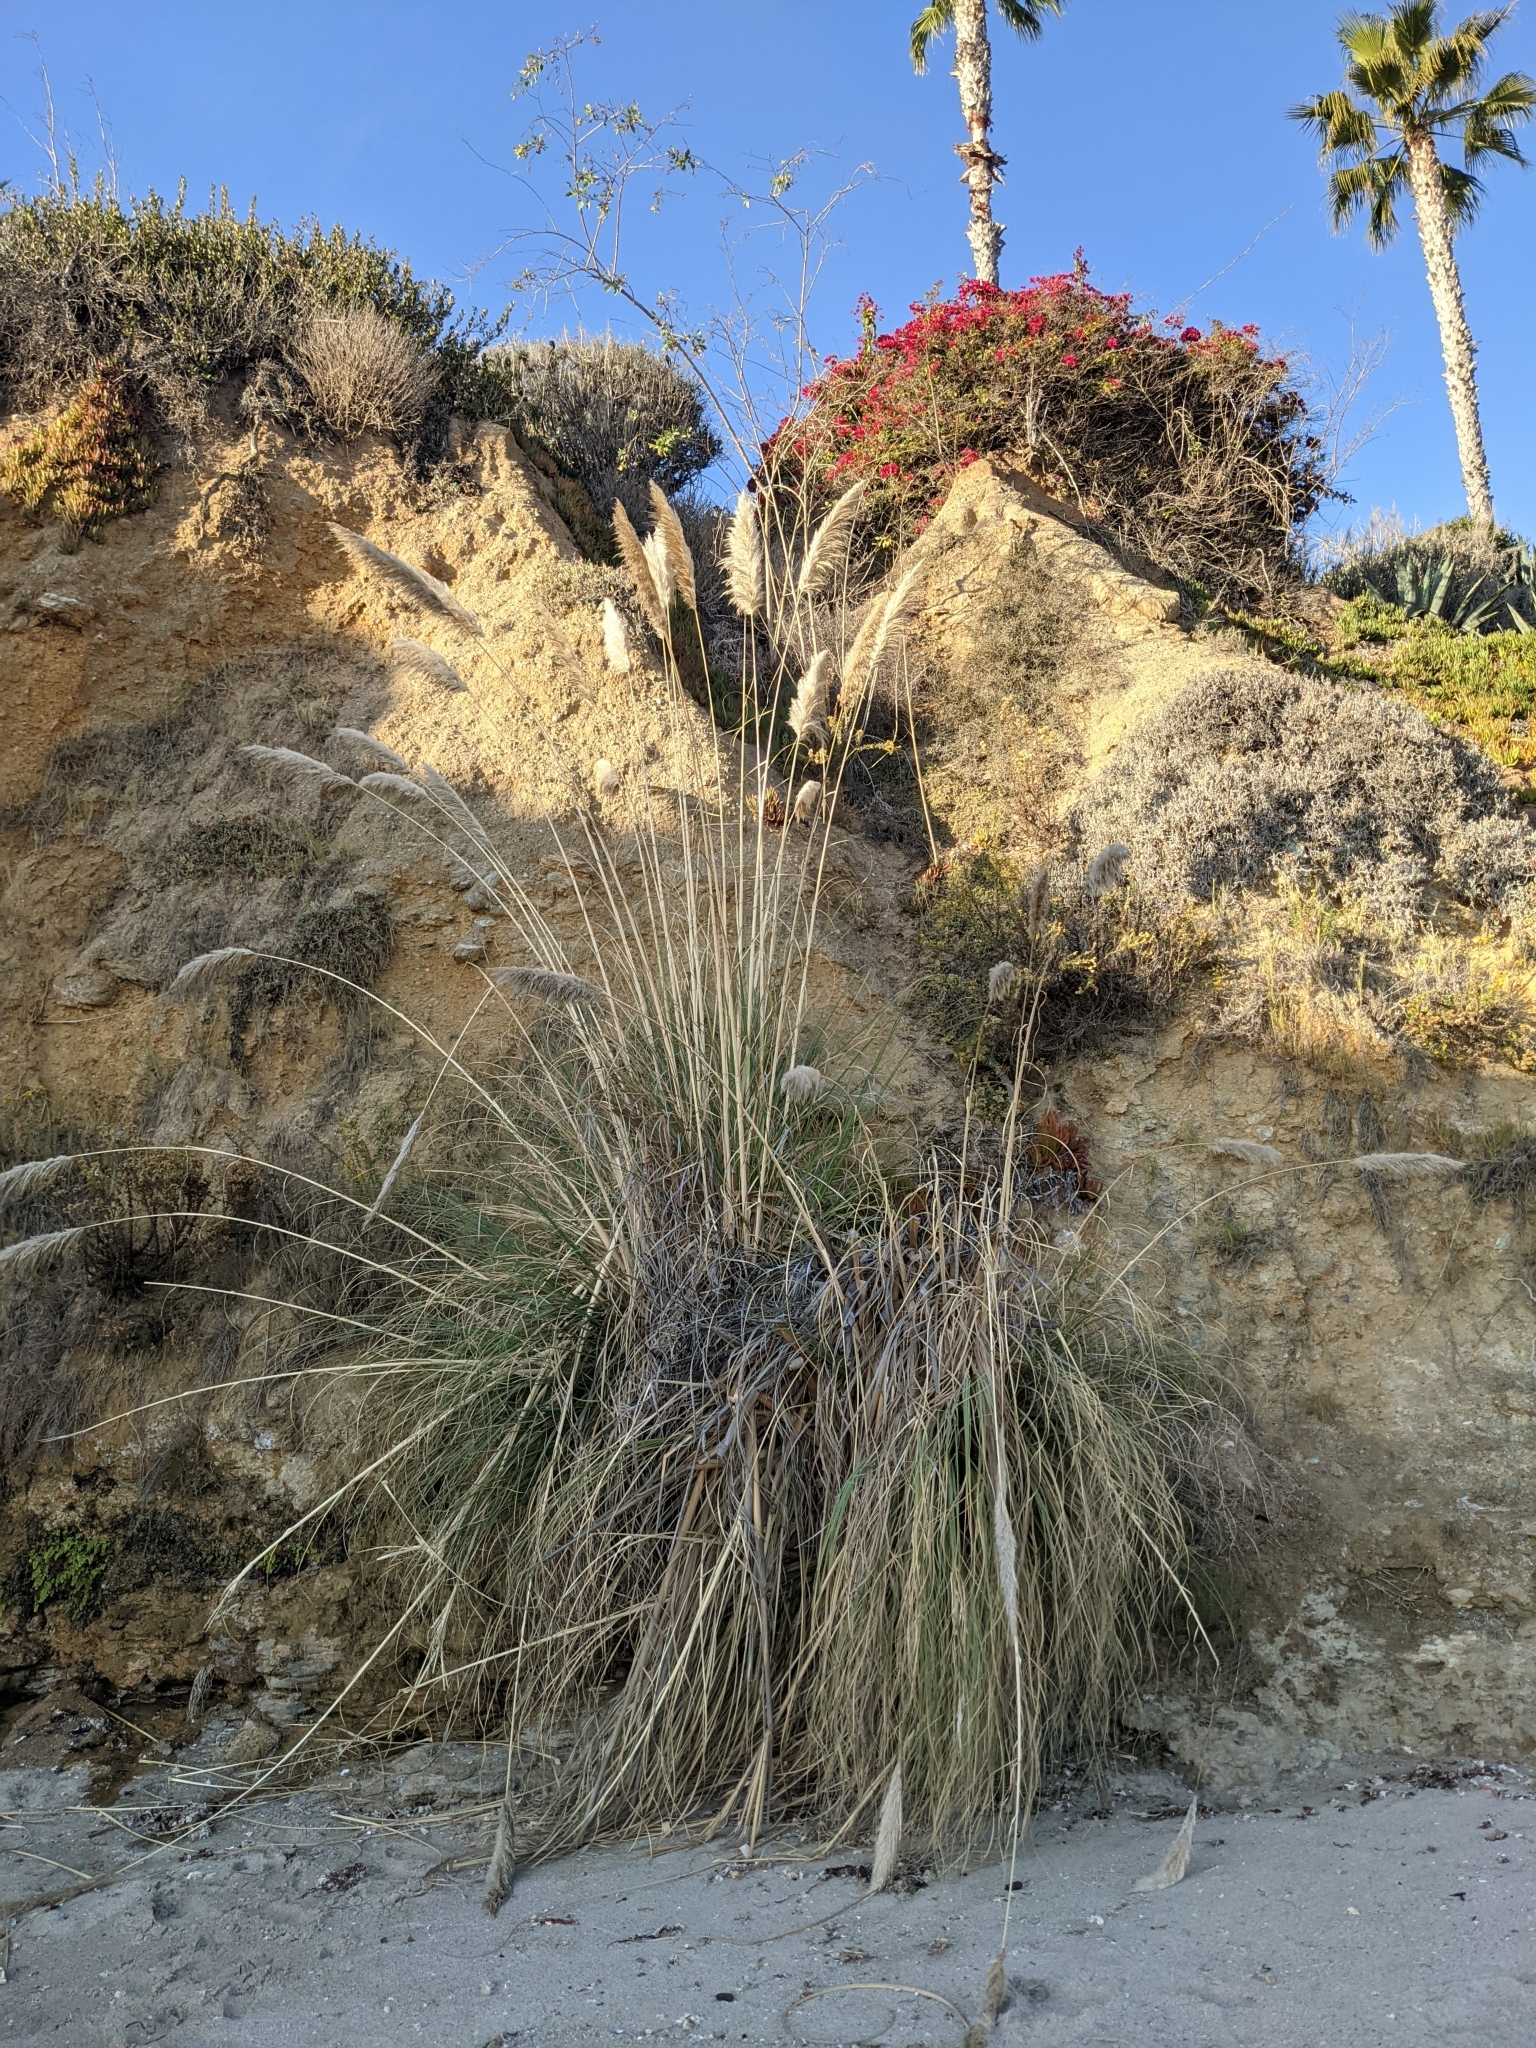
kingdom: Plantae
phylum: Tracheophyta
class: Liliopsida
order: Poales
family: Poaceae
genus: Cortaderia
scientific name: Cortaderia selloana
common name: Uruguayan pampas grass
